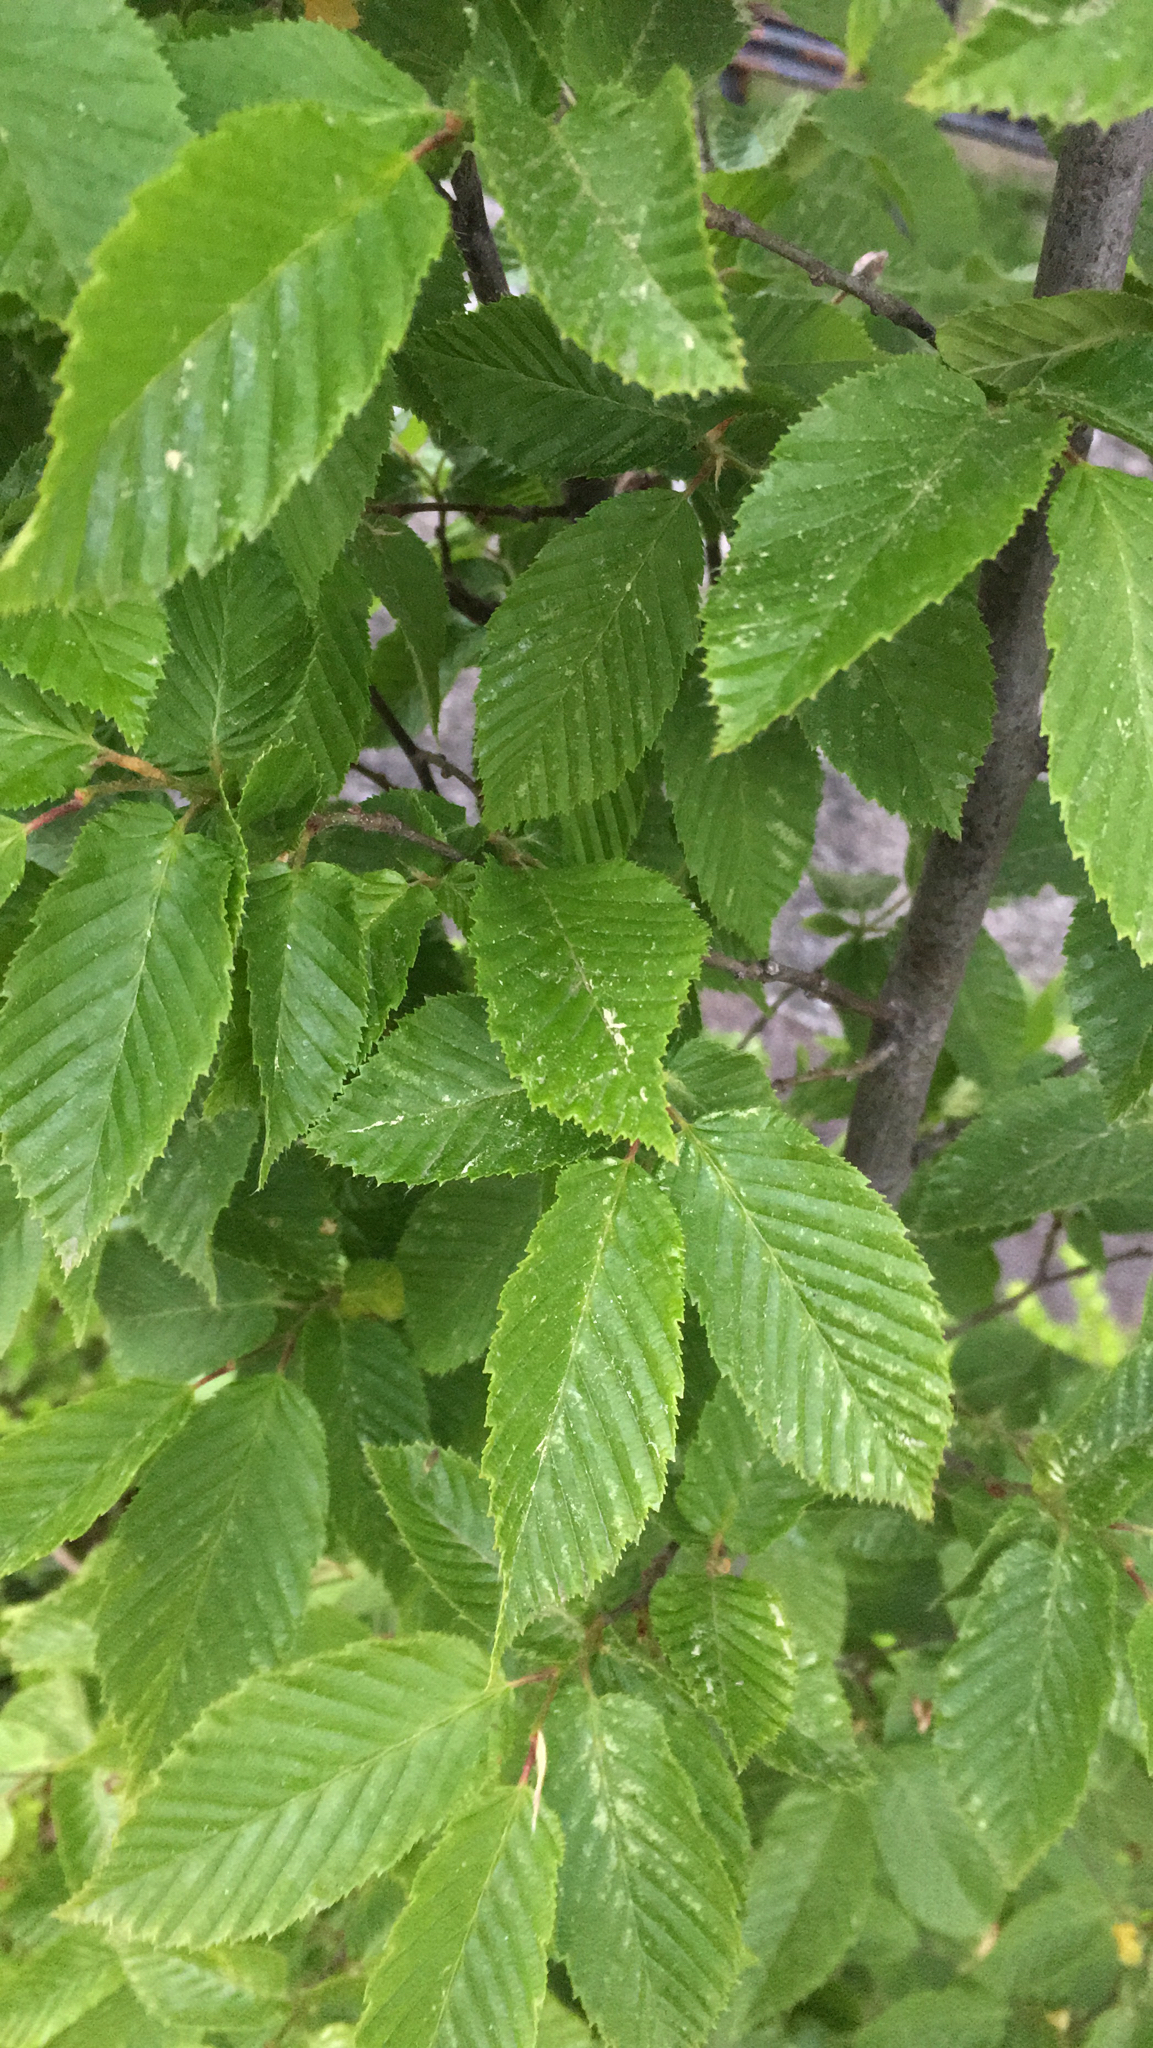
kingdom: Plantae
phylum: Tracheophyta
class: Magnoliopsida
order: Fagales
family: Betulaceae
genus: Carpinus
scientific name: Carpinus betulus
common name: Hornbeam
